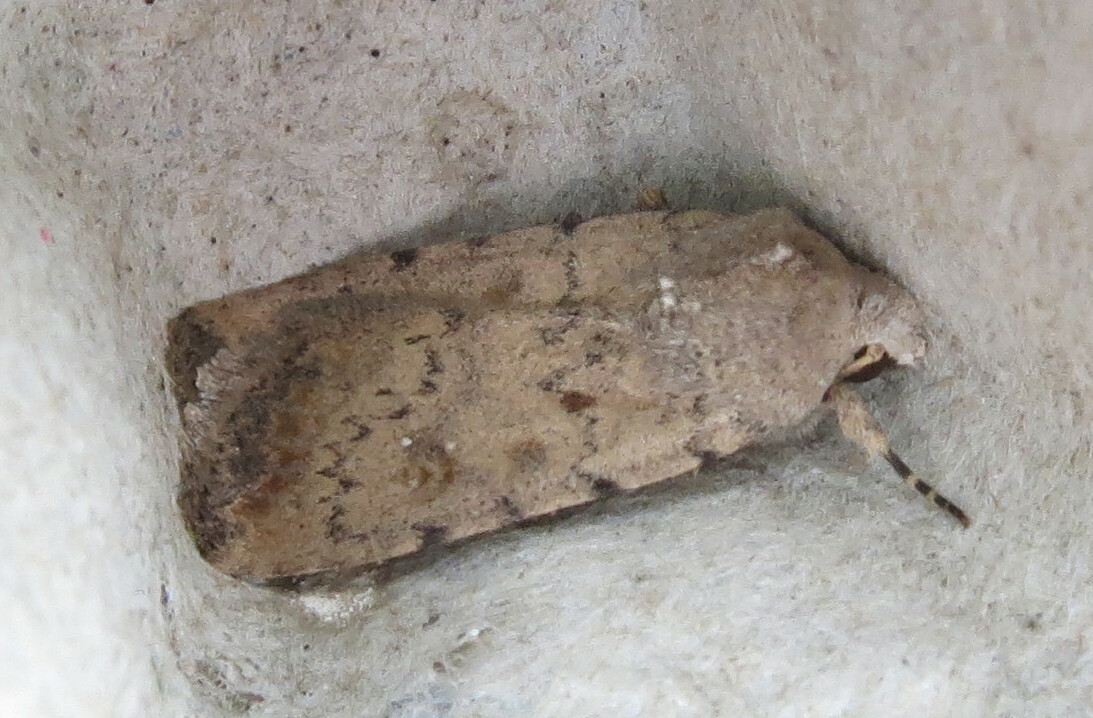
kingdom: Animalia
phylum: Arthropoda
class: Insecta
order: Lepidoptera
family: Noctuidae
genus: Caradrina
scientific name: Caradrina clavipalpis
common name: Pale mottled willow
